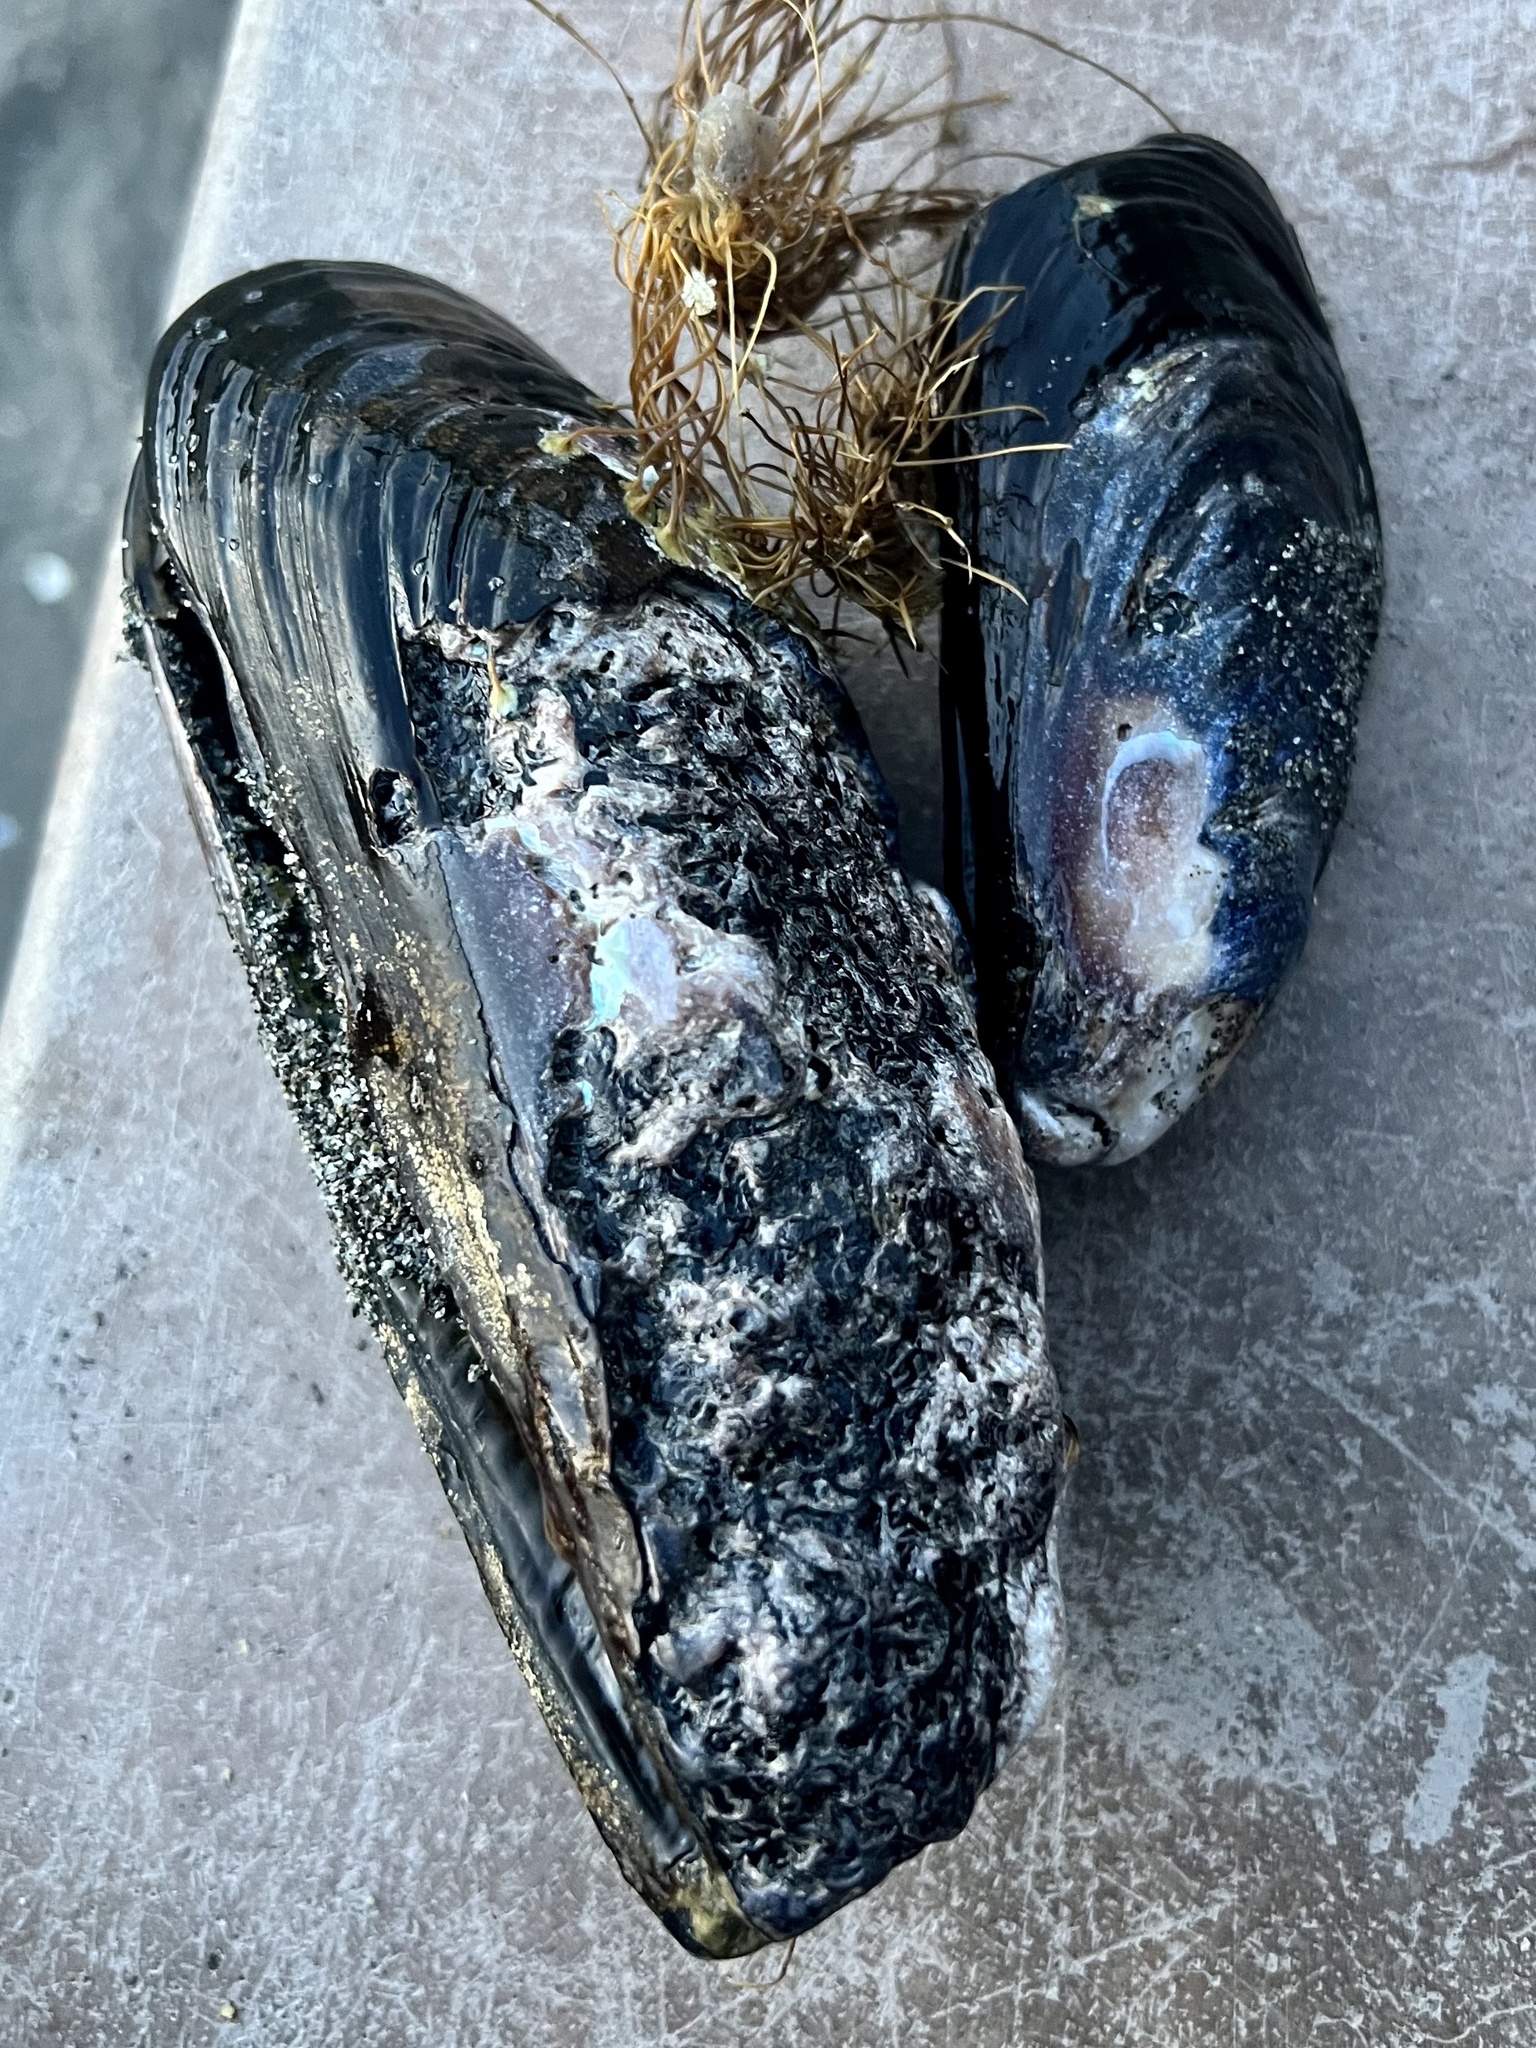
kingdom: Animalia
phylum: Mollusca
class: Bivalvia
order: Mytilida
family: Mytilidae
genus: Mytilus
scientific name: Mytilus californianus
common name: California mussel
